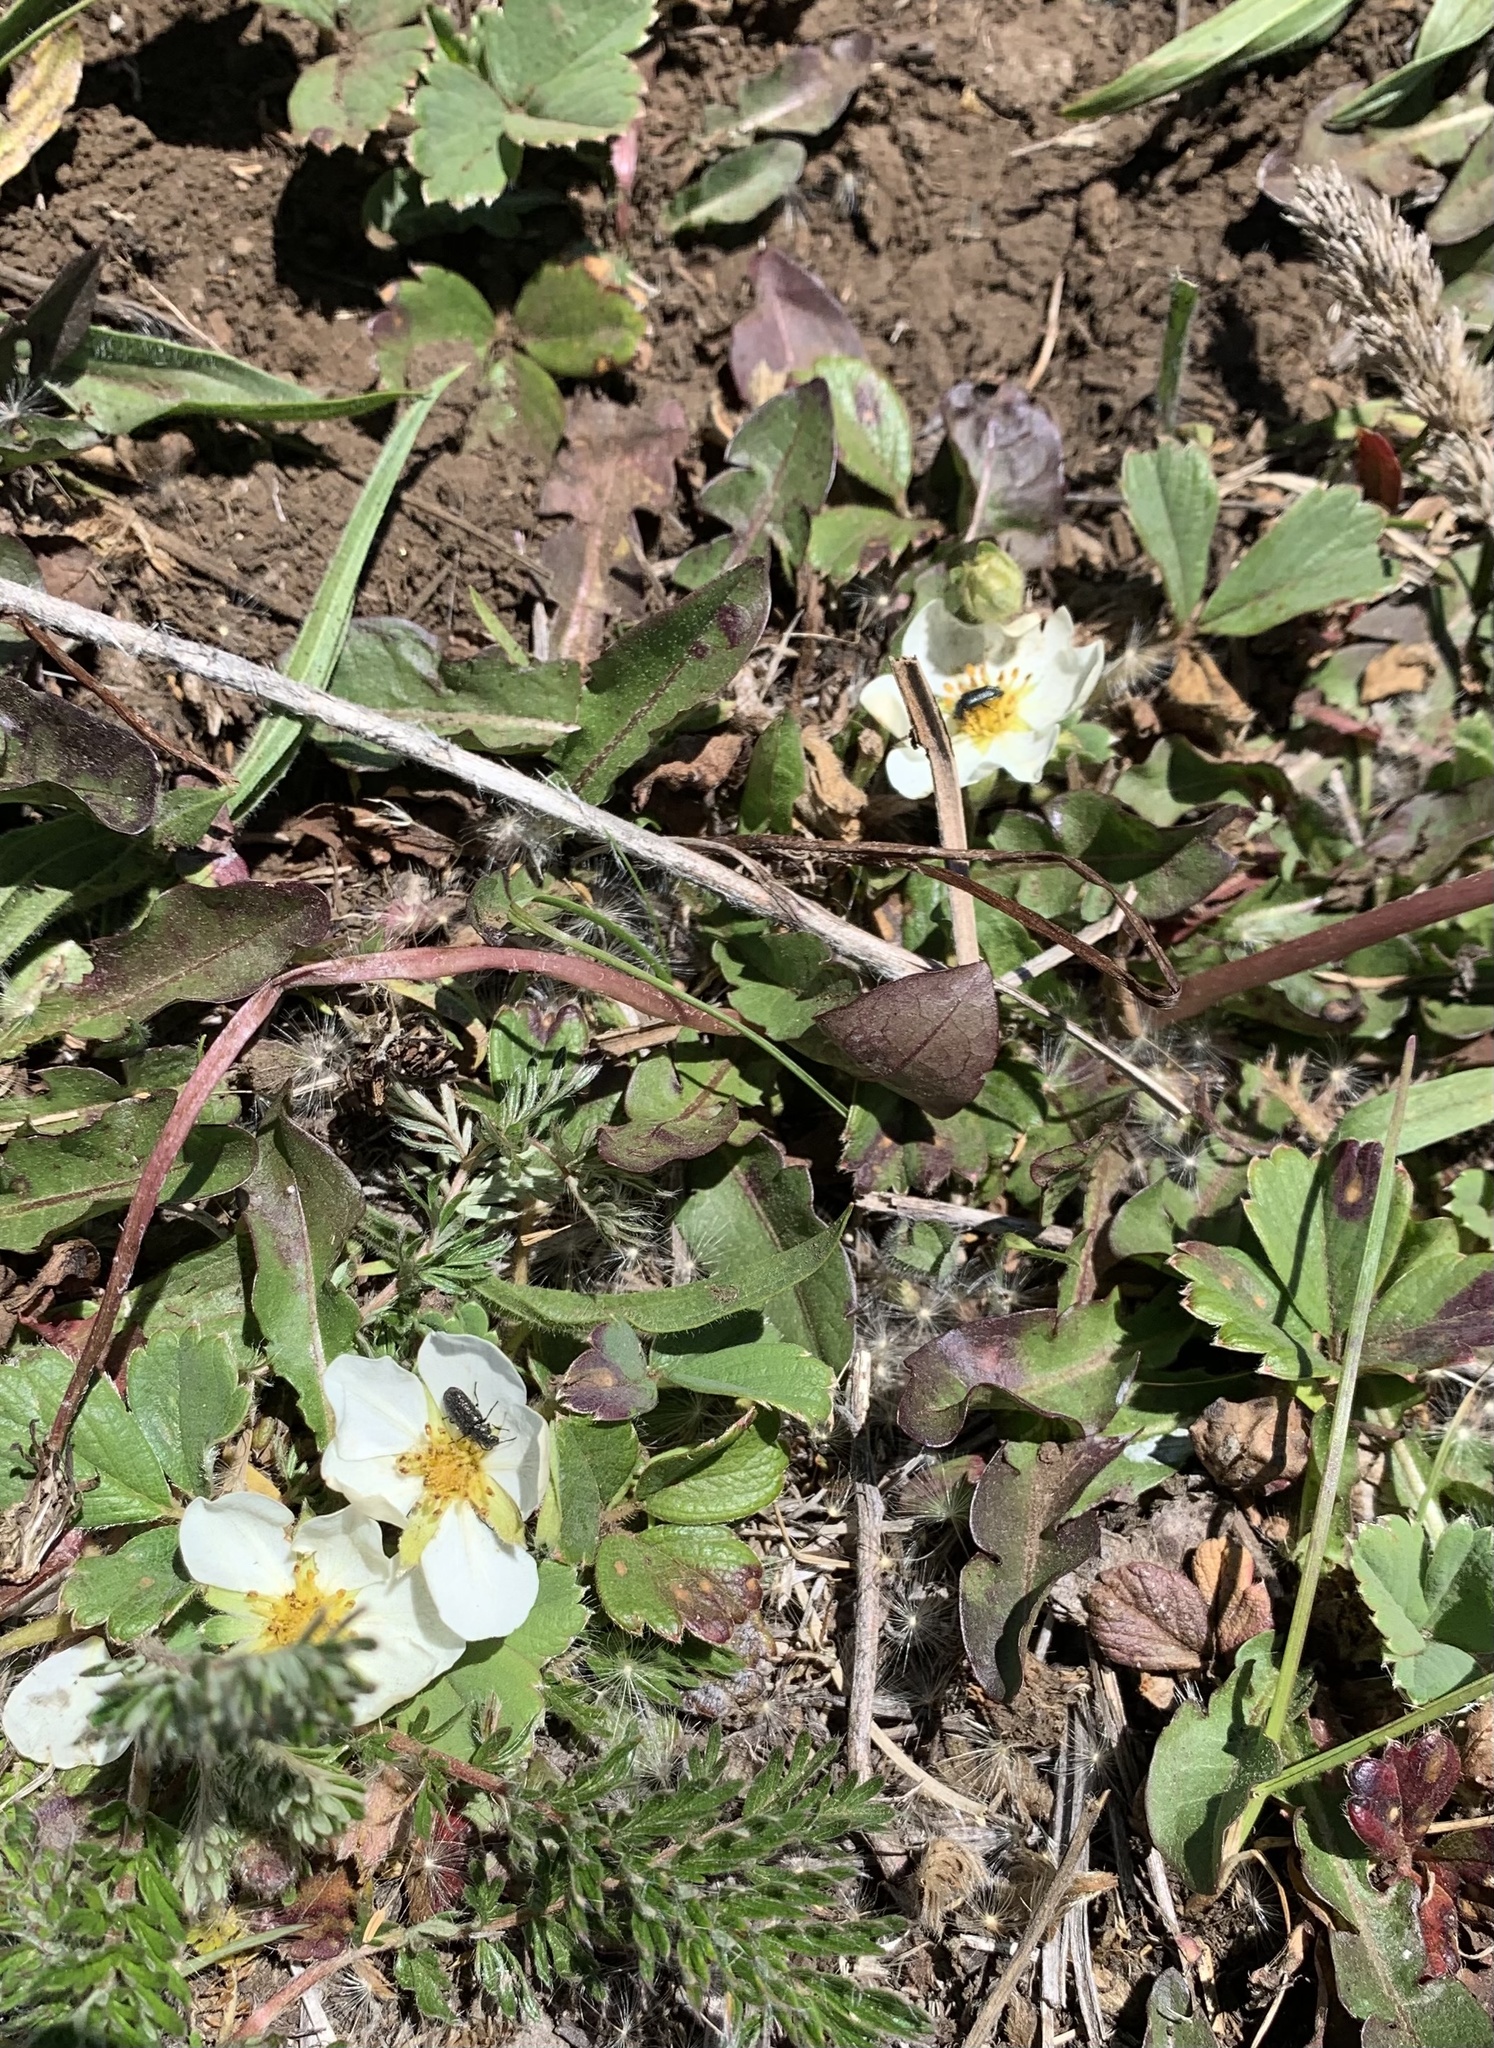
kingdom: Plantae
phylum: Tracheophyta
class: Magnoliopsida
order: Rosales
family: Rosaceae
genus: Fragaria
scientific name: Fragaria chiloensis
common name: Beach strawberry
